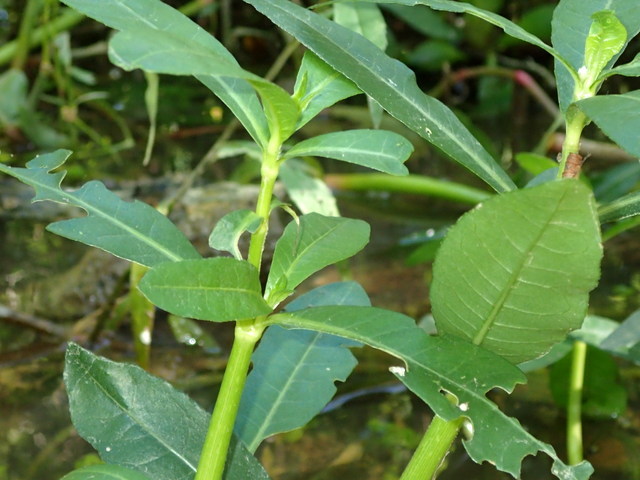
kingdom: Plantae
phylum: Tracheophyta
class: Magnoliopsida
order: Caryophyllales
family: Amaranthaceae
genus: Alternanthera
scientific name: Alternanthera philoxeroides
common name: Alligatorweed
